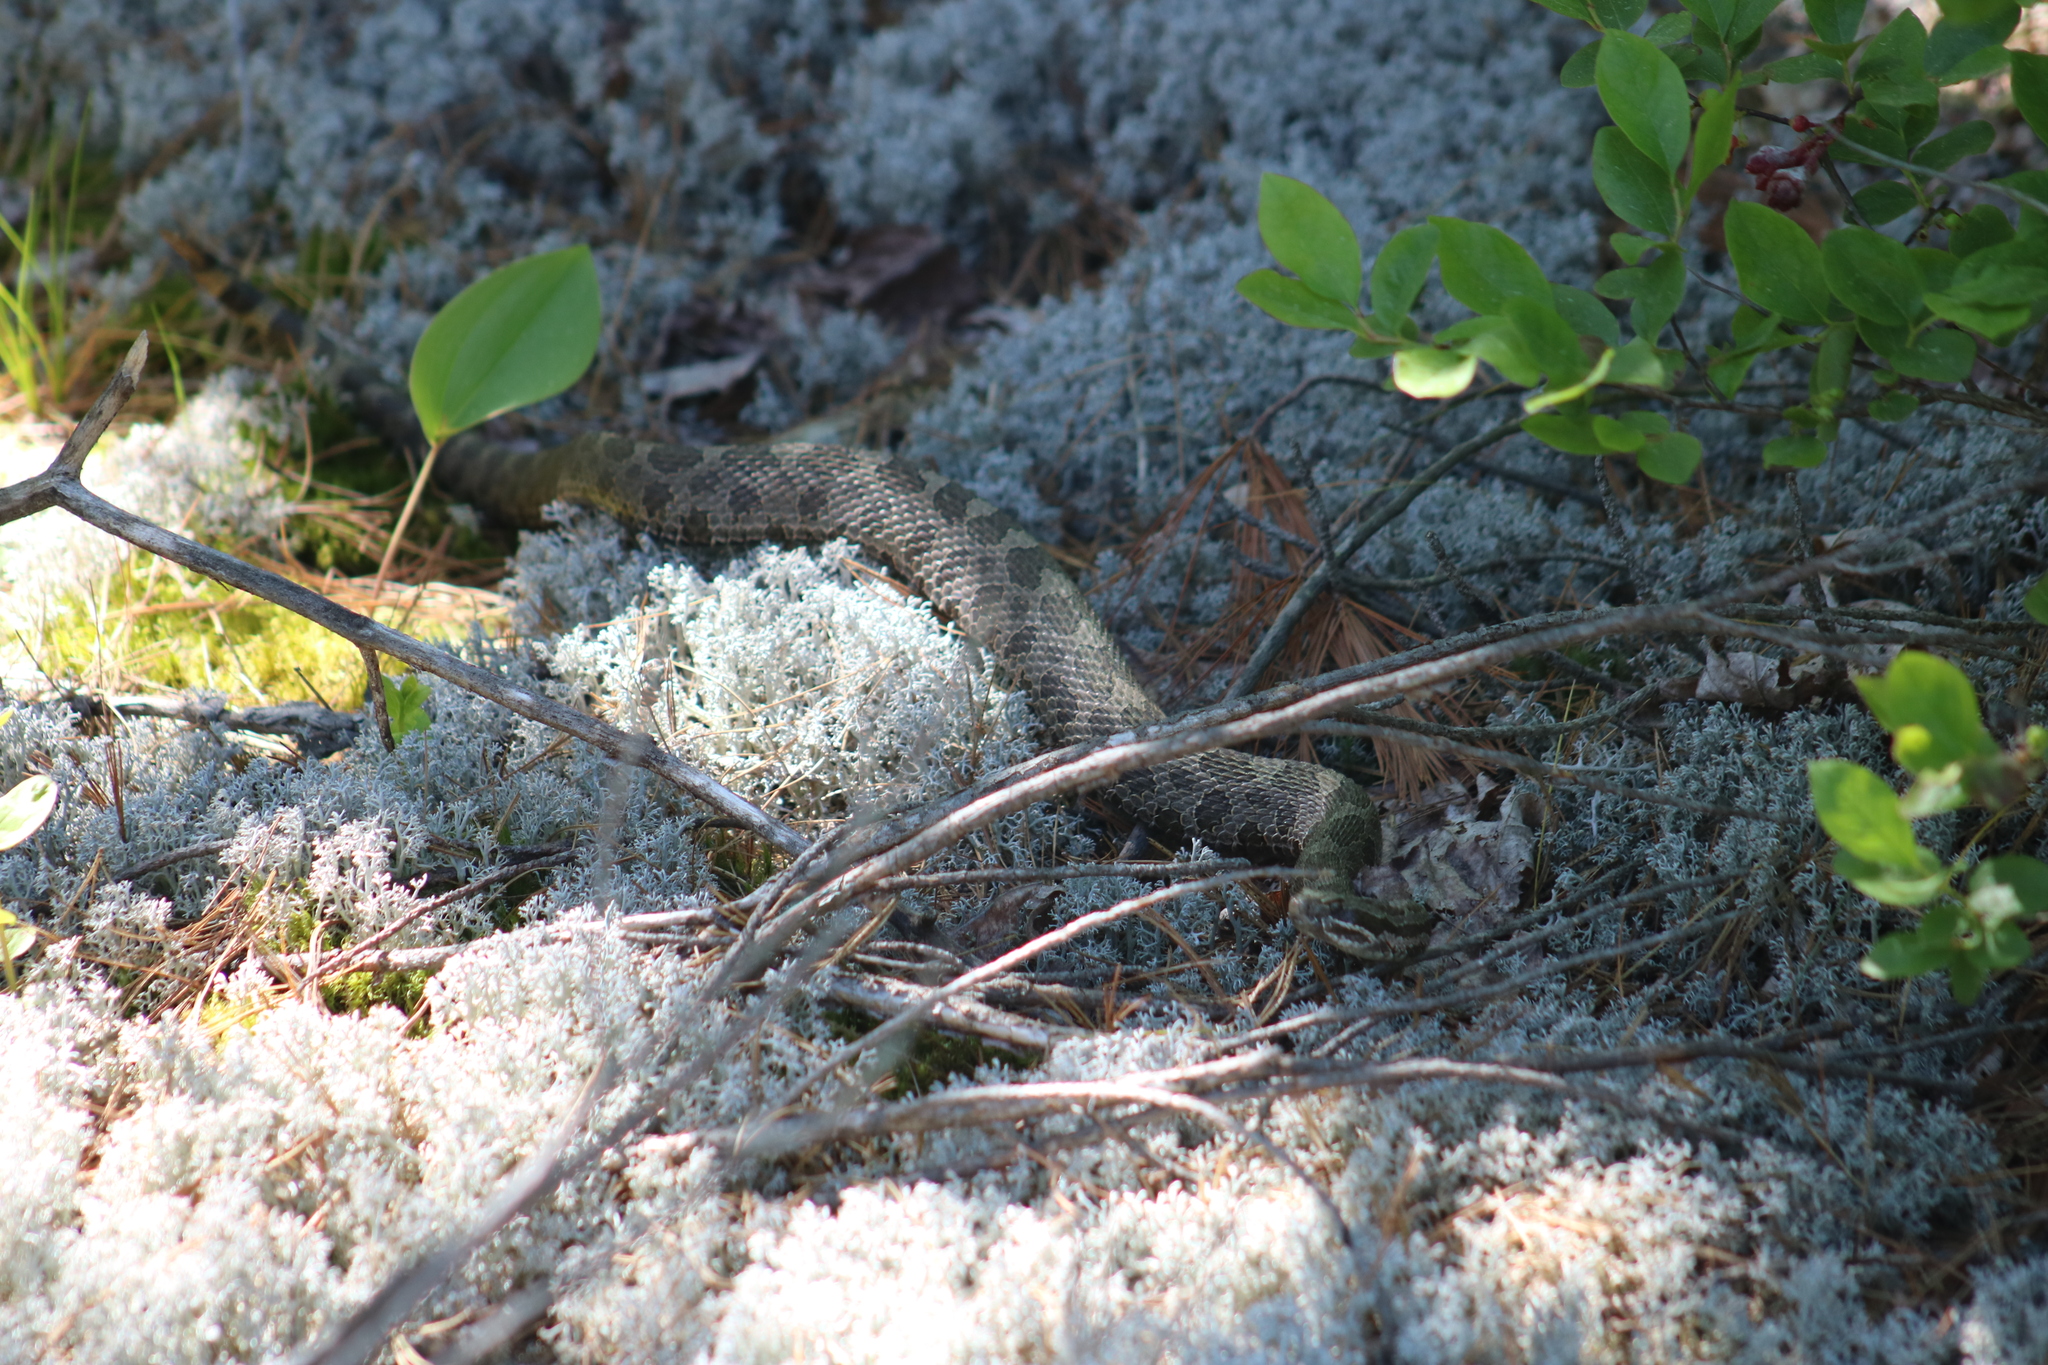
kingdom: Animalia
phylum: Chordata
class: Squamata
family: Viperidae
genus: Sistrurus
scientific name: Sistrurus catenatus
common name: Massasauga
